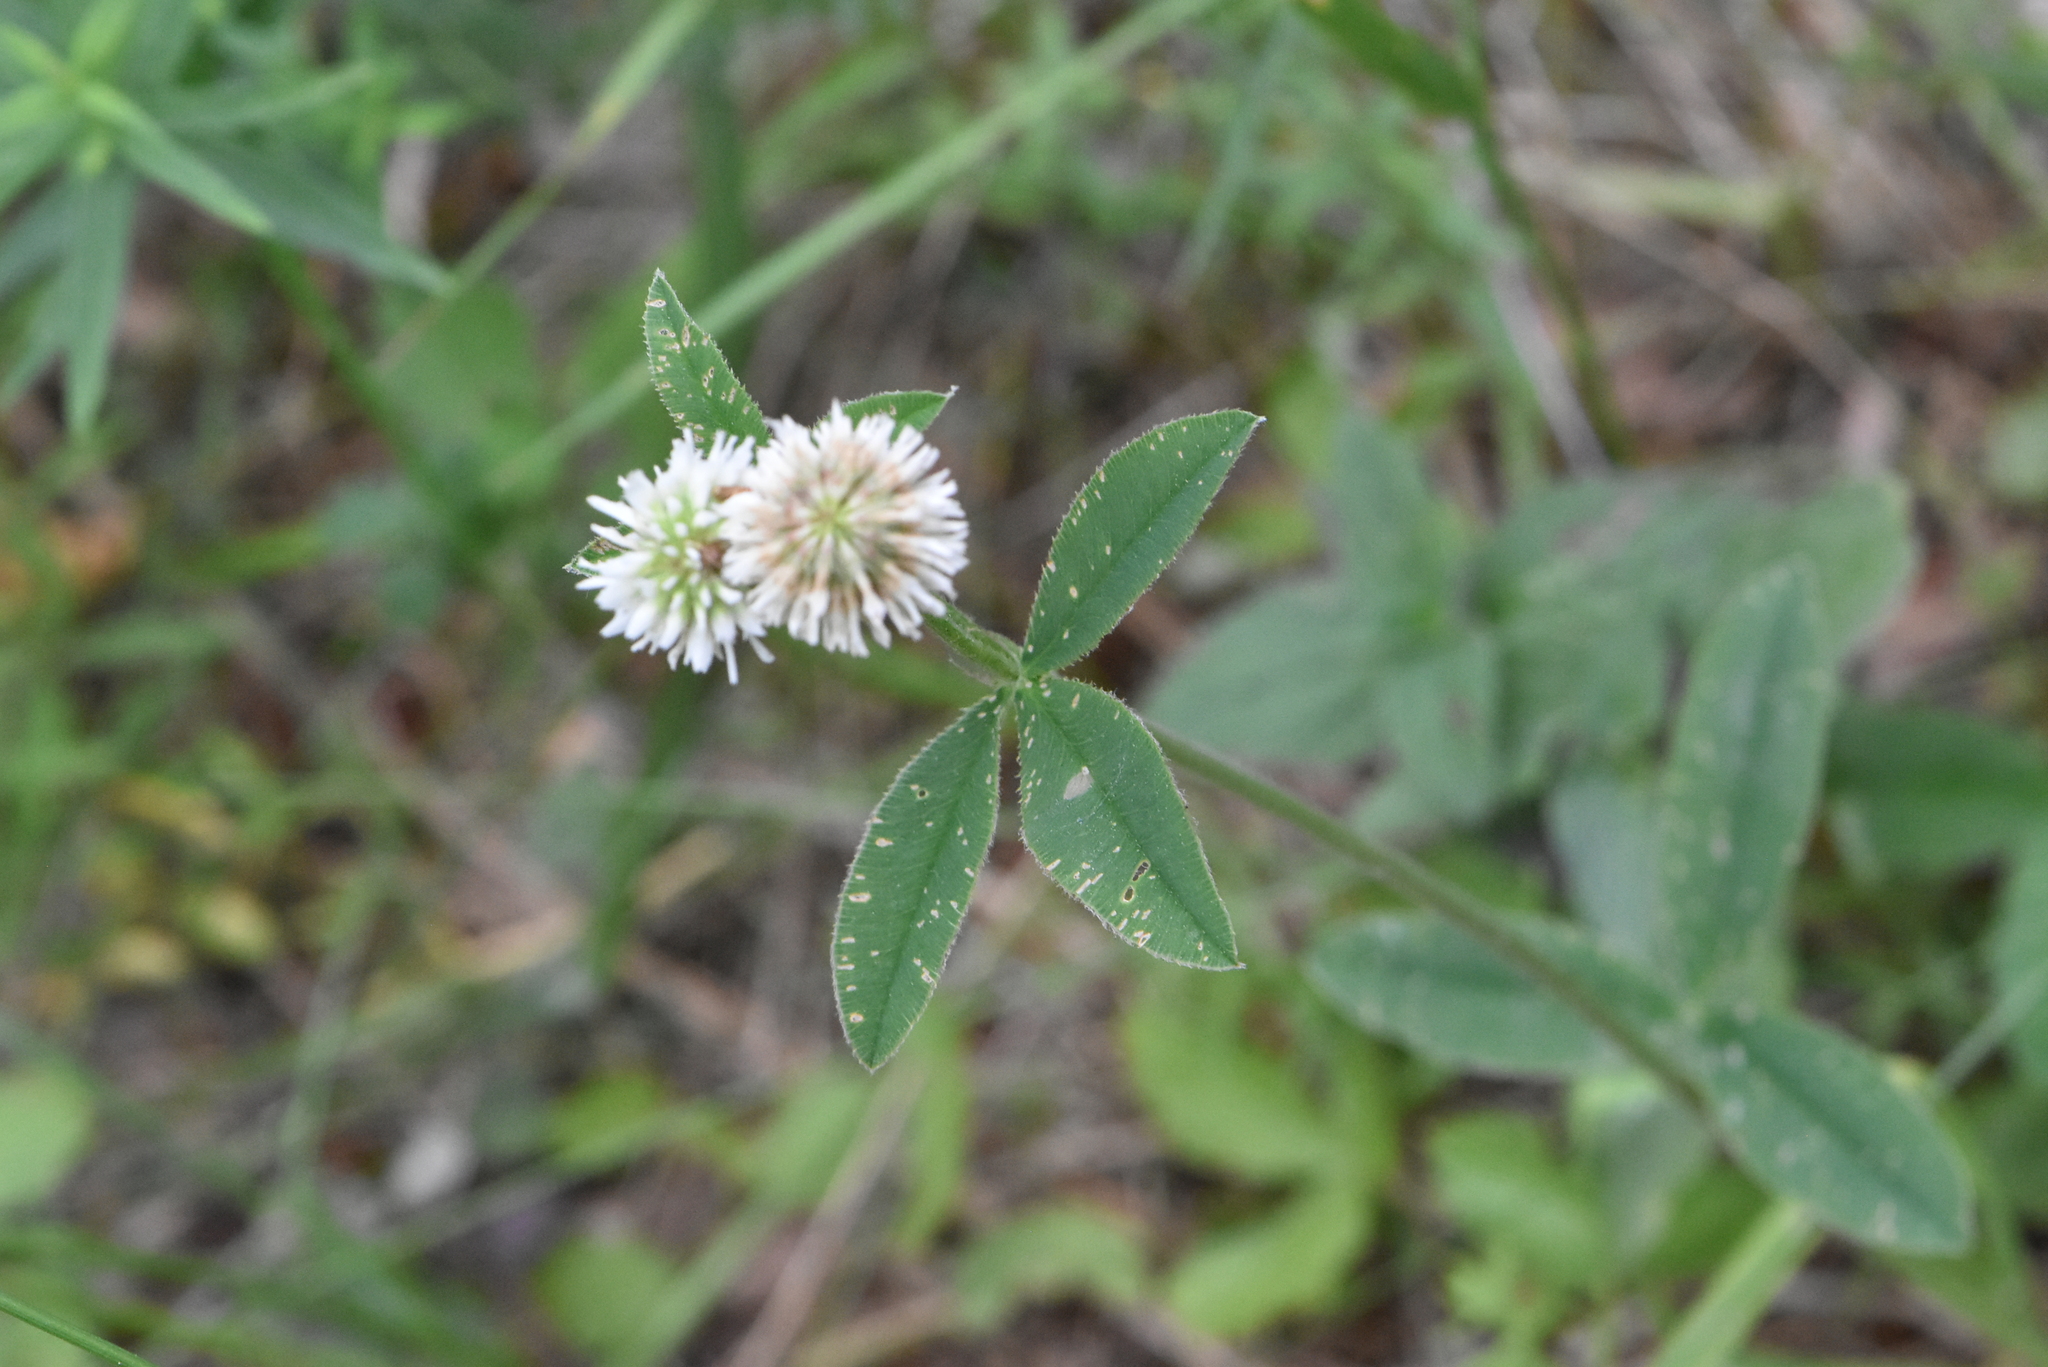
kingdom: Plantae
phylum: Tracheophyta
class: Magnoliopsida
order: Fabales
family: Fabaceae
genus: Trifolium
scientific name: Trifolium montanum
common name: Mountain clover
